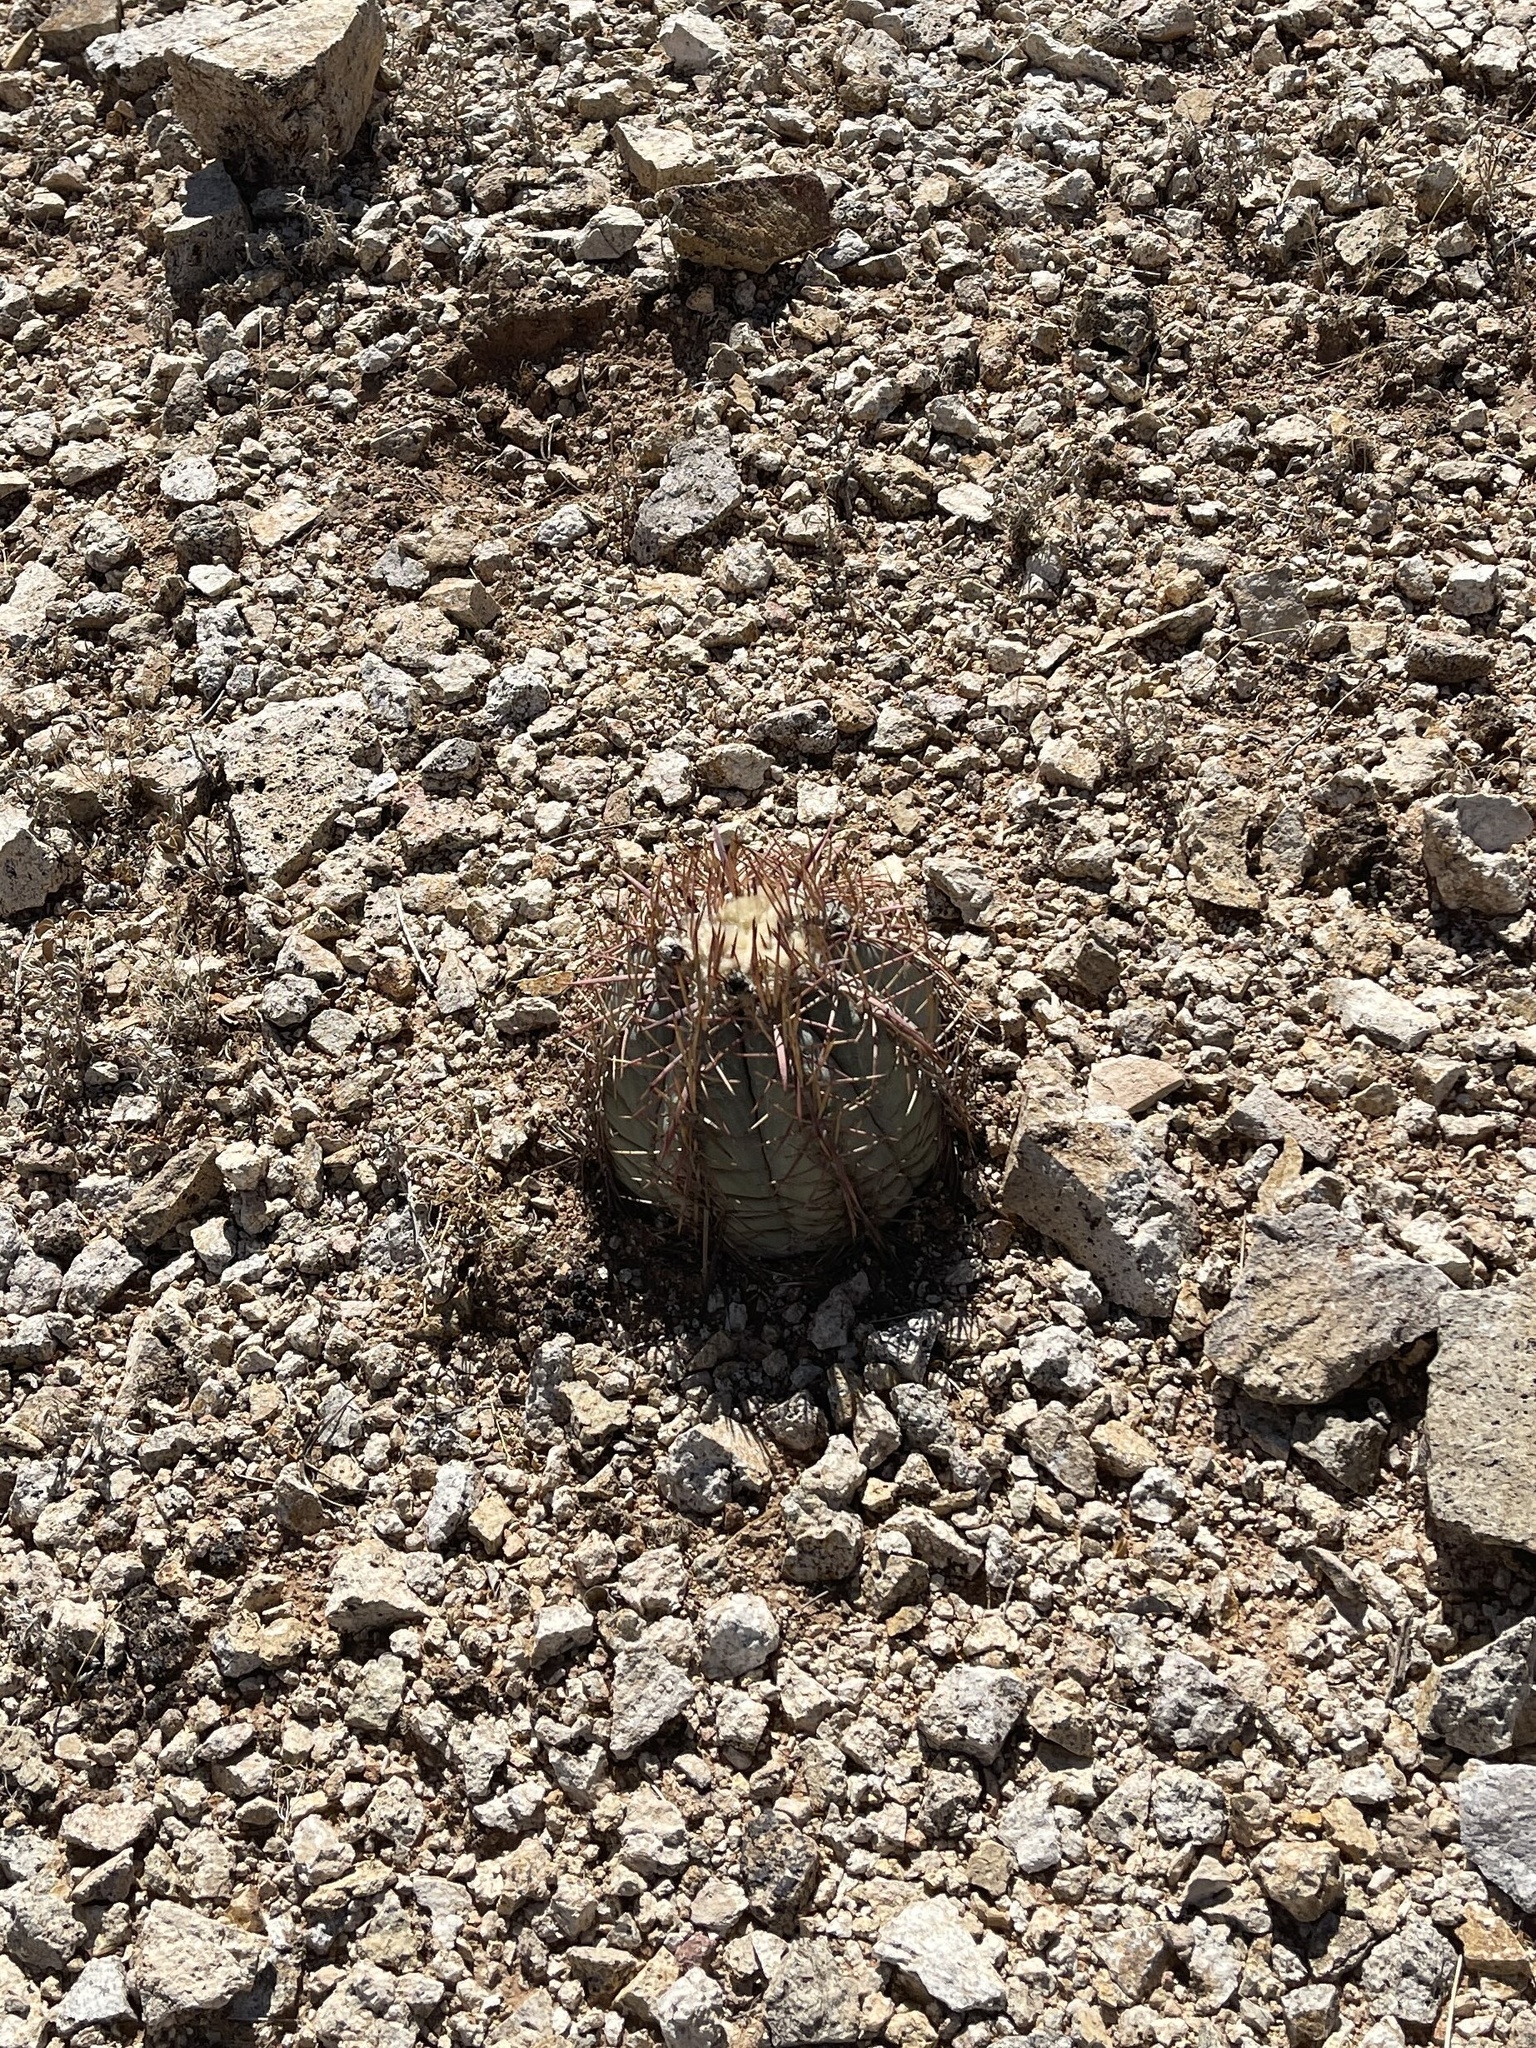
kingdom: Plantae
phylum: Tracheophyta
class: Magnoliopsida
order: Caryophyllales
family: Cactaceae
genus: Echinocactus
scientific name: Echinocactus horizonthalonius
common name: Devilshead
